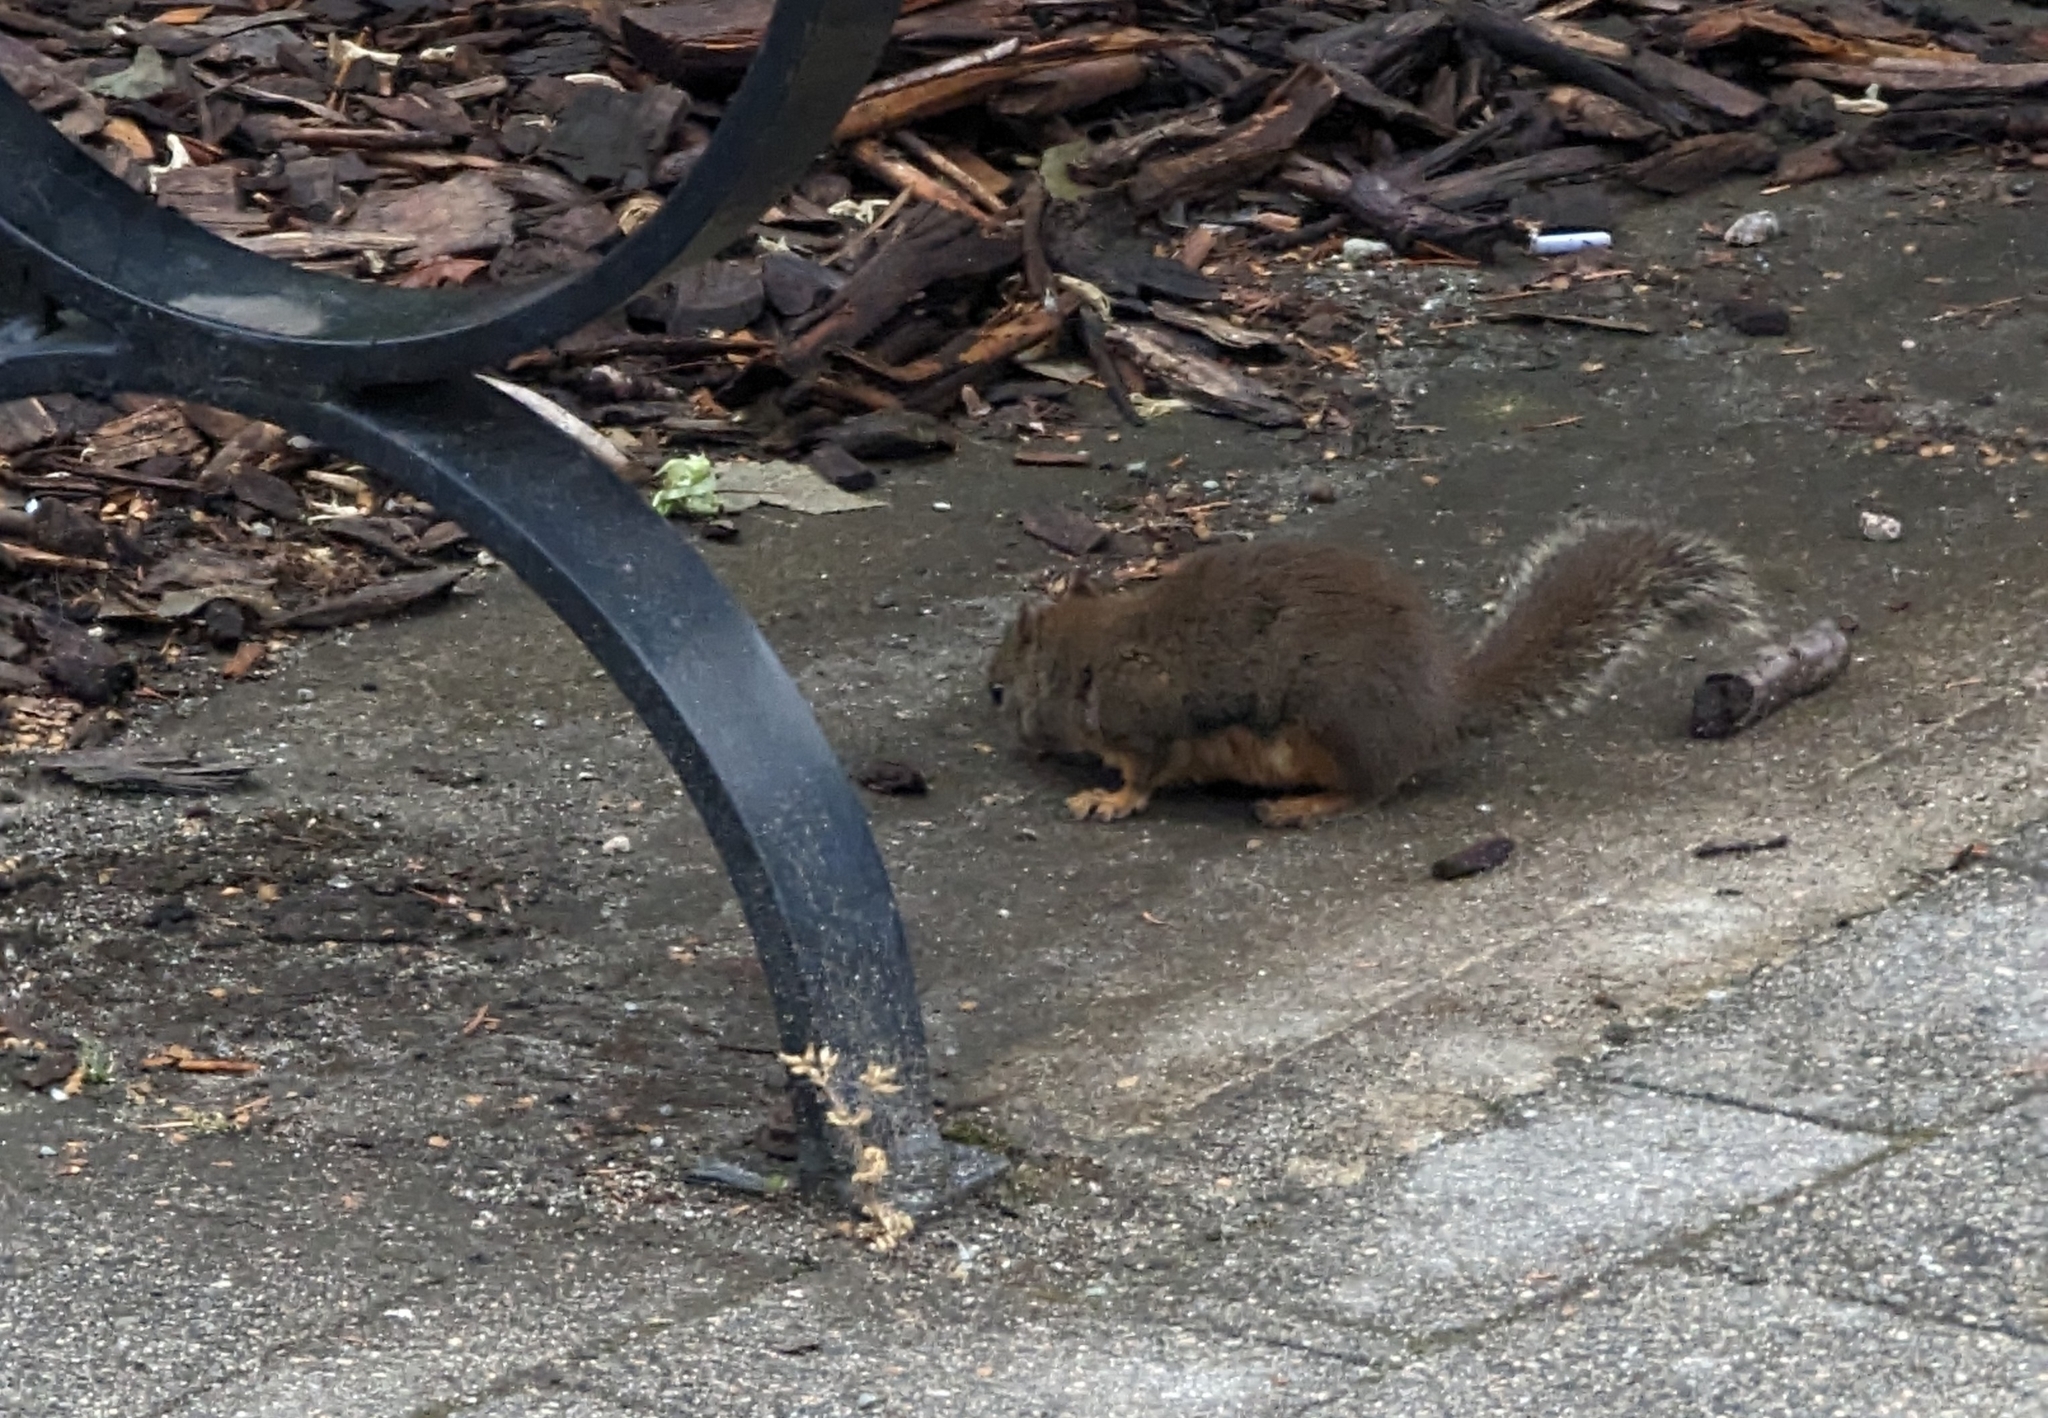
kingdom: Animalia
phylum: Chordata
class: Mammalia
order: Rodentia
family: Sciuridae
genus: Tamiasciurus
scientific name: Tamiasciurus douglasii
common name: Douglas's squirrel
